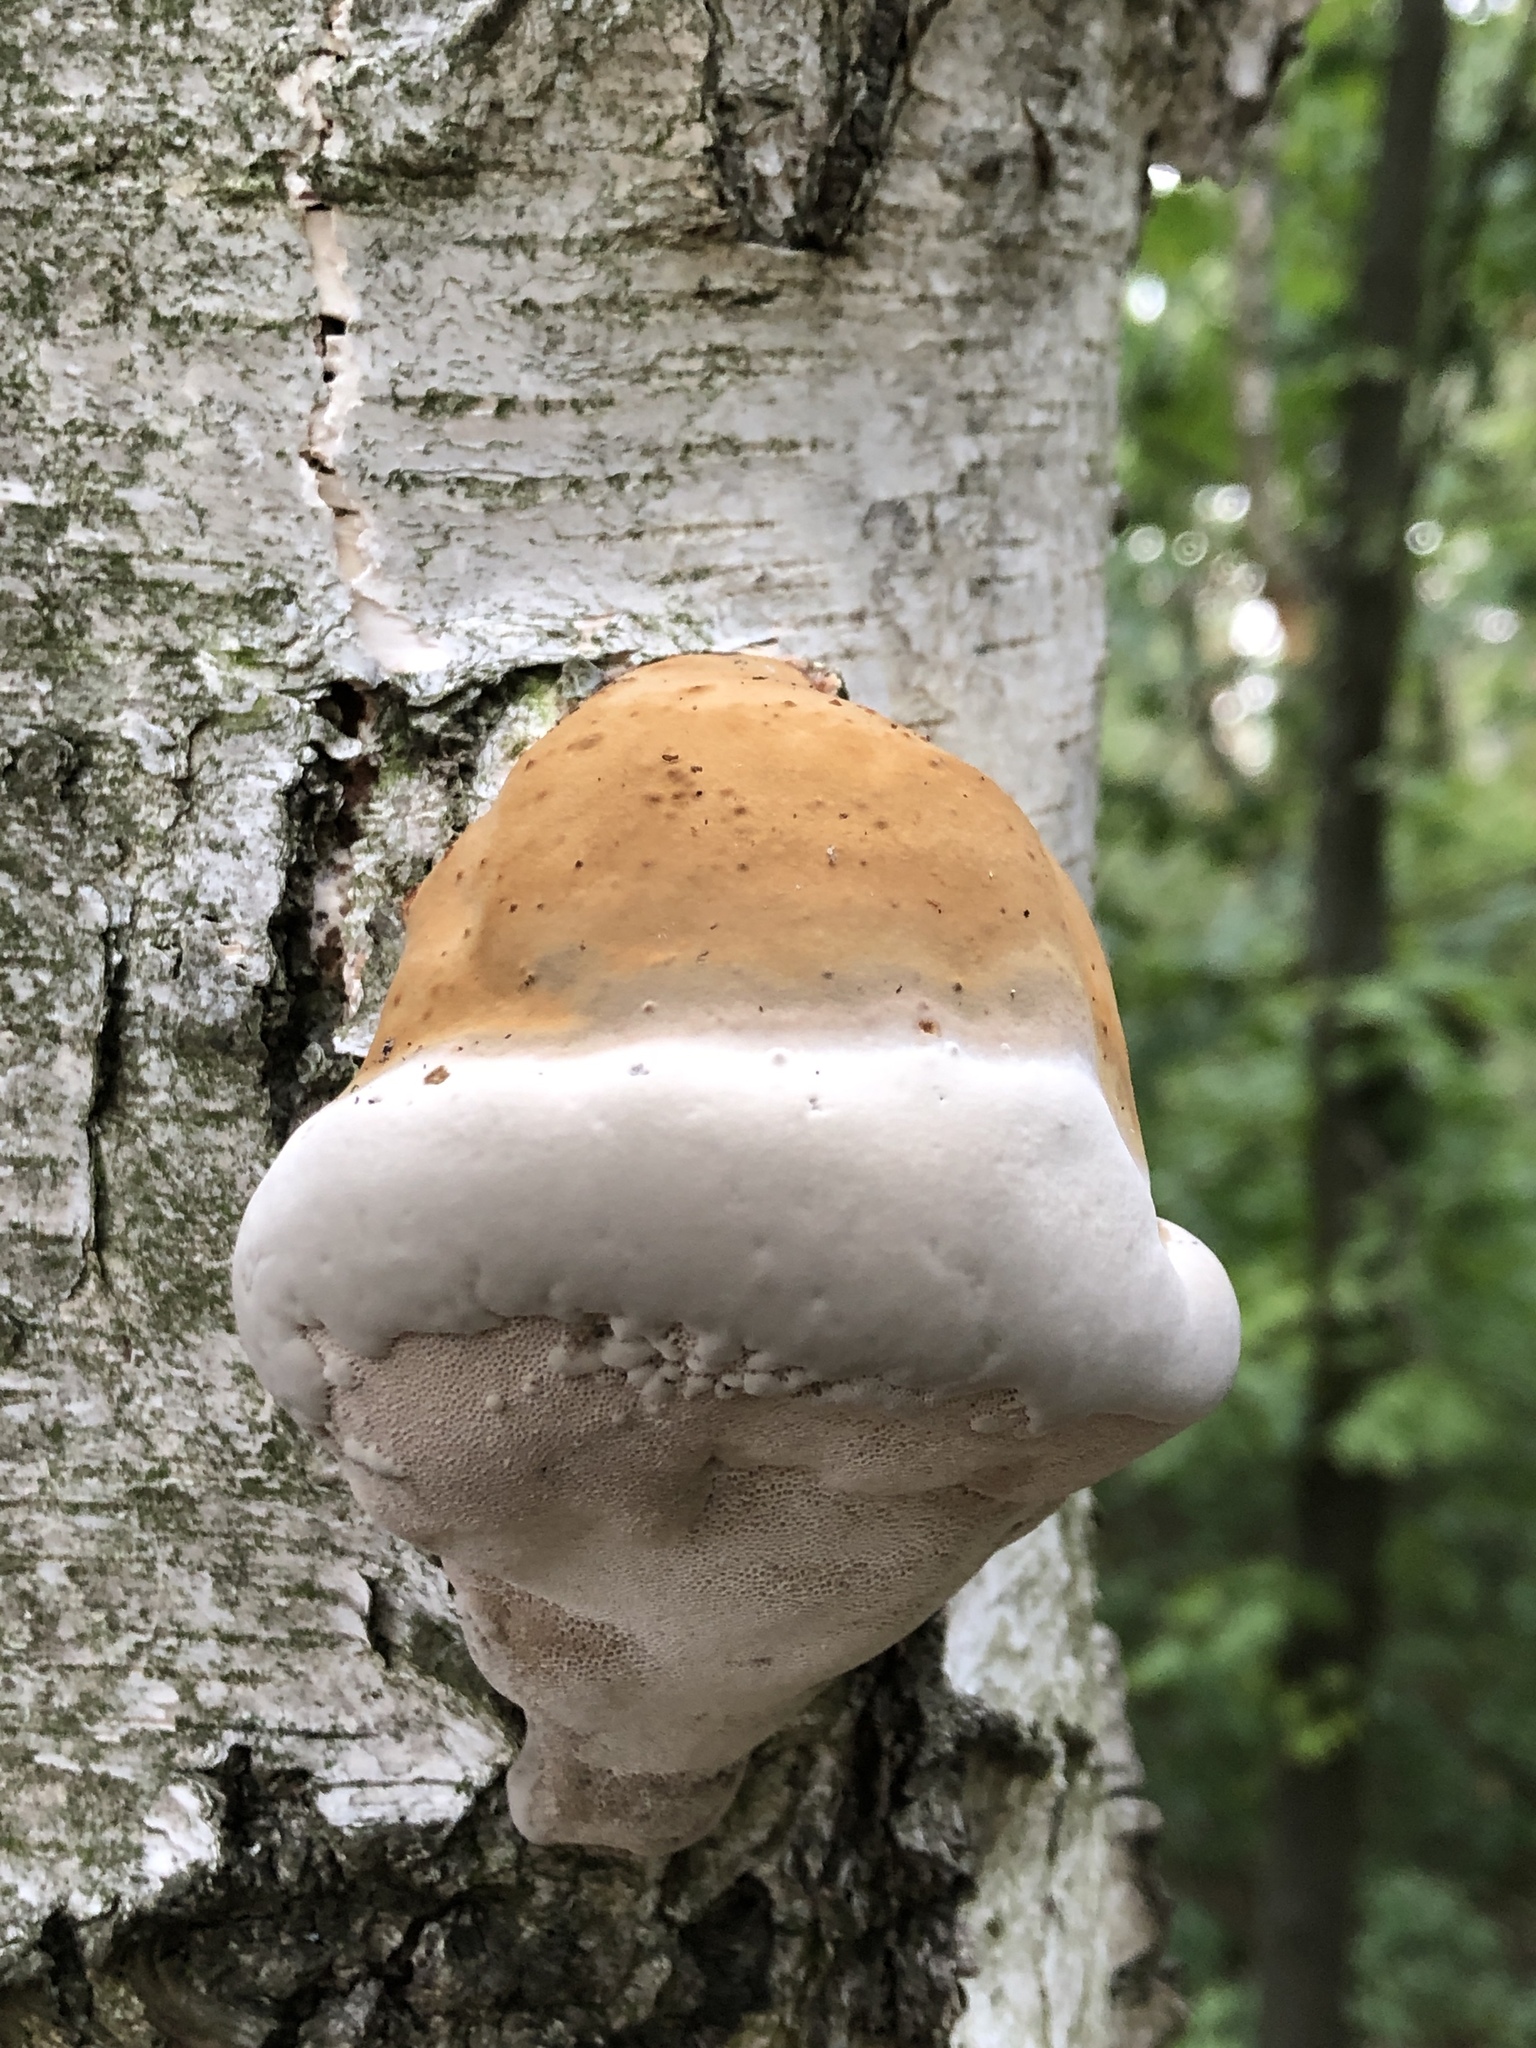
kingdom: Fungi
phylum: Basidiomycota
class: Agaricomycetes
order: Polyporales
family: Polyporaceae
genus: Fomes
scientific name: Fomes fomentarius
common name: Hoof fungus
